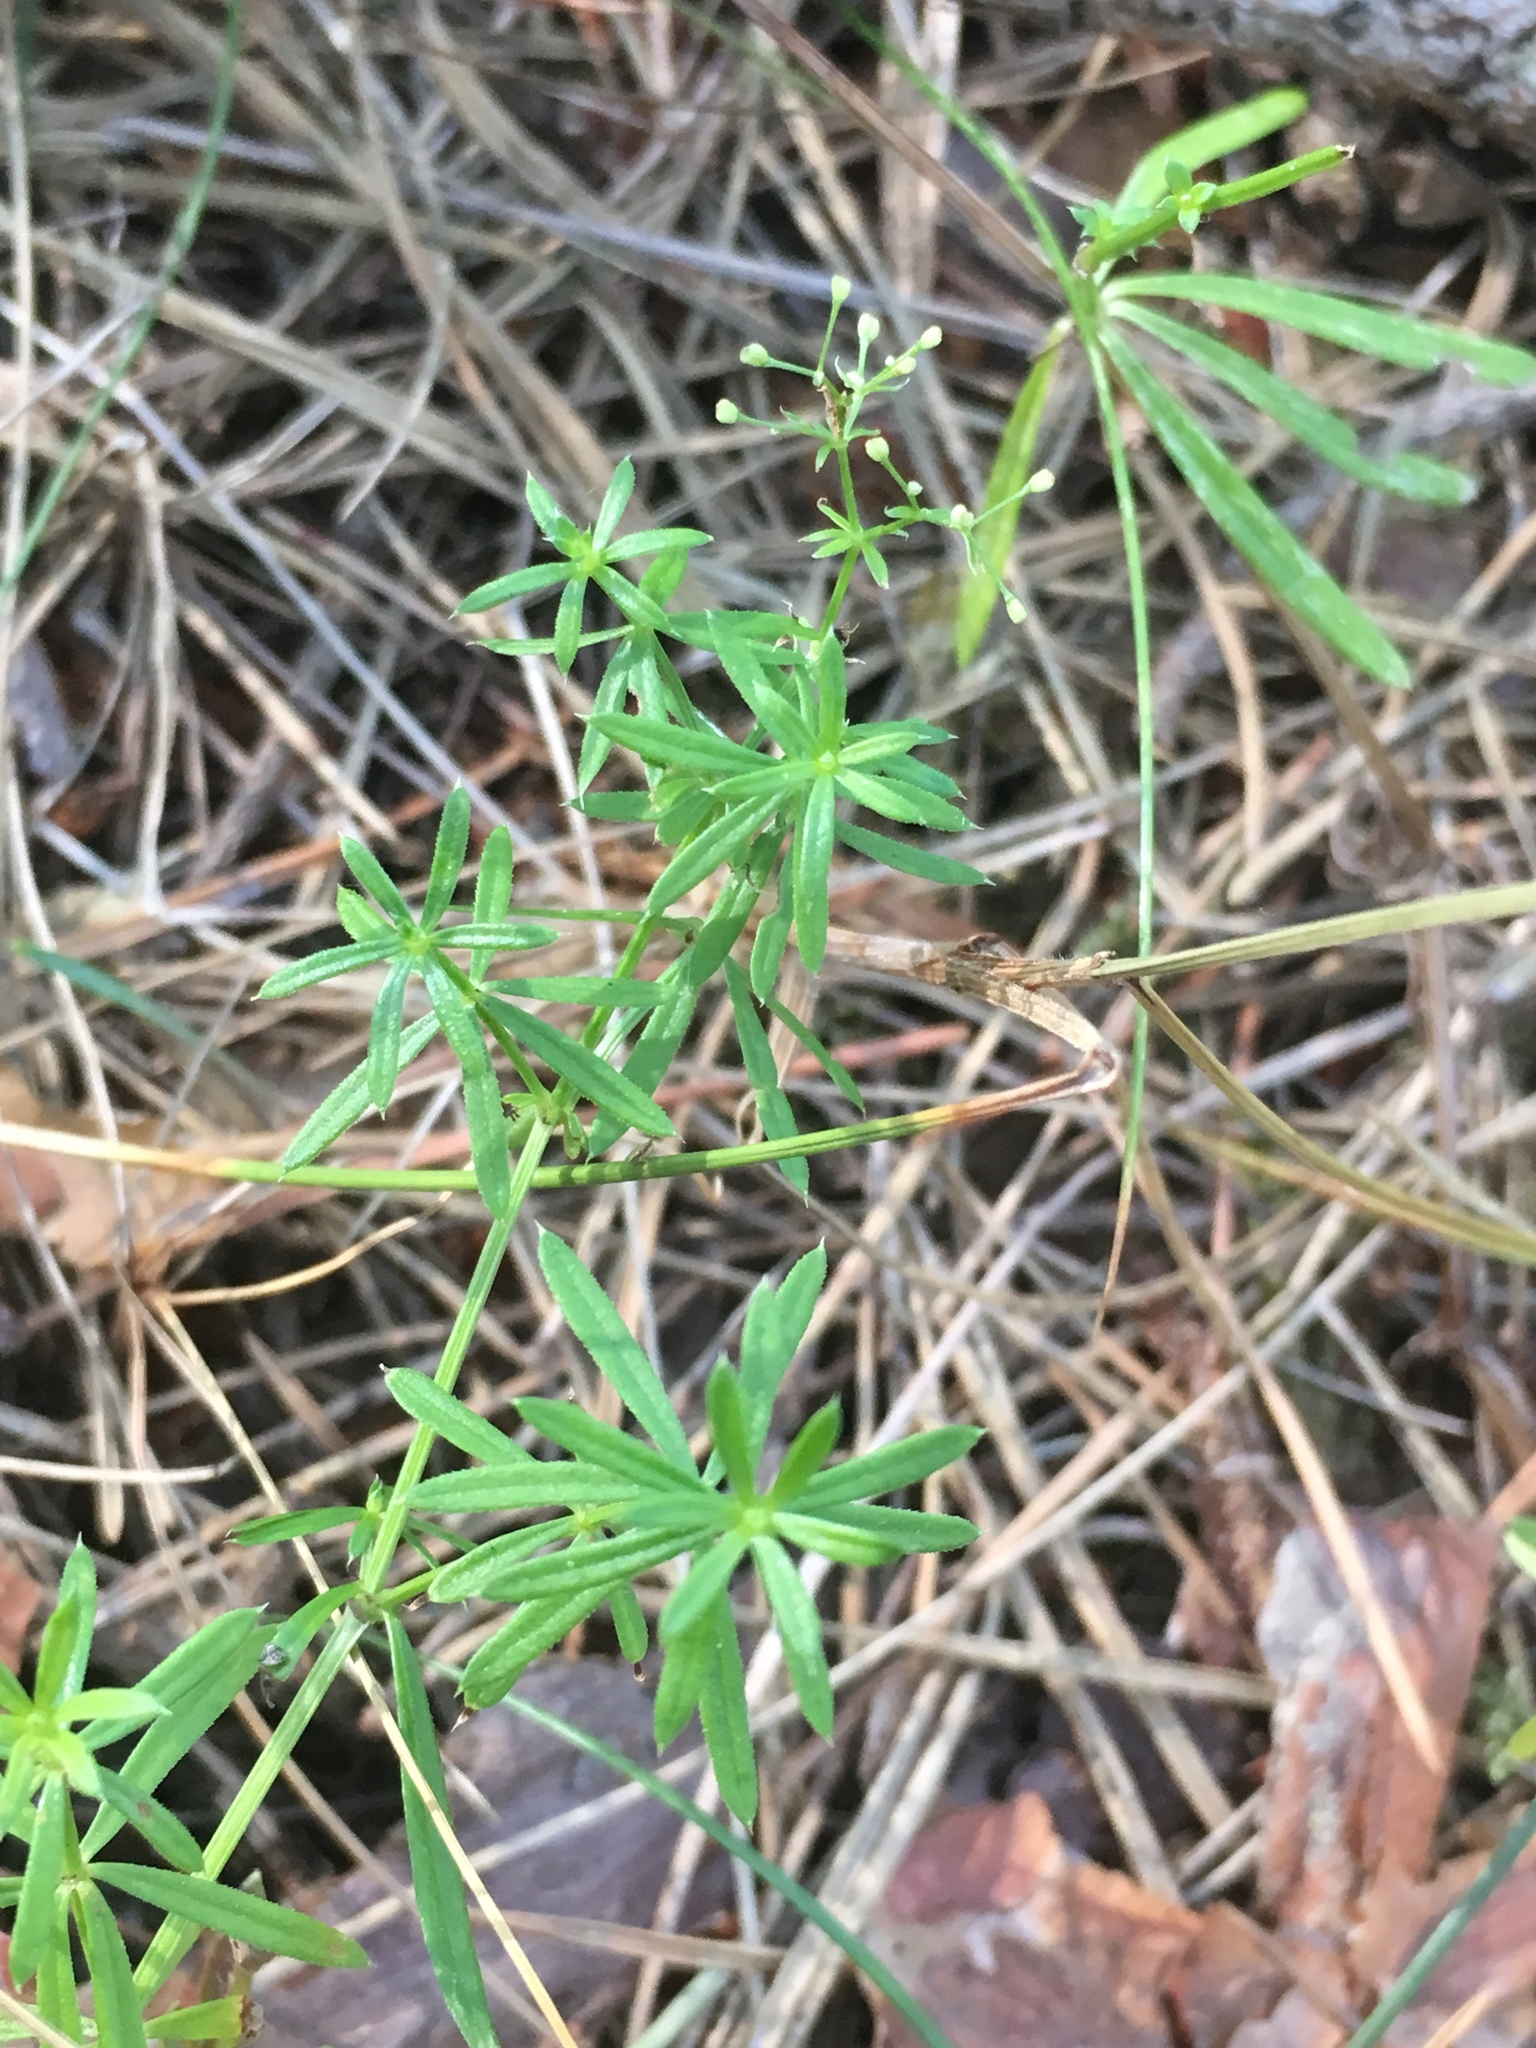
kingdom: Plantae
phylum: Tracheophyta
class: Magnoliopsida
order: Gentianales
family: Rubiaceae
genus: Galium
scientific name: Galium aparine
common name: Cleavers
